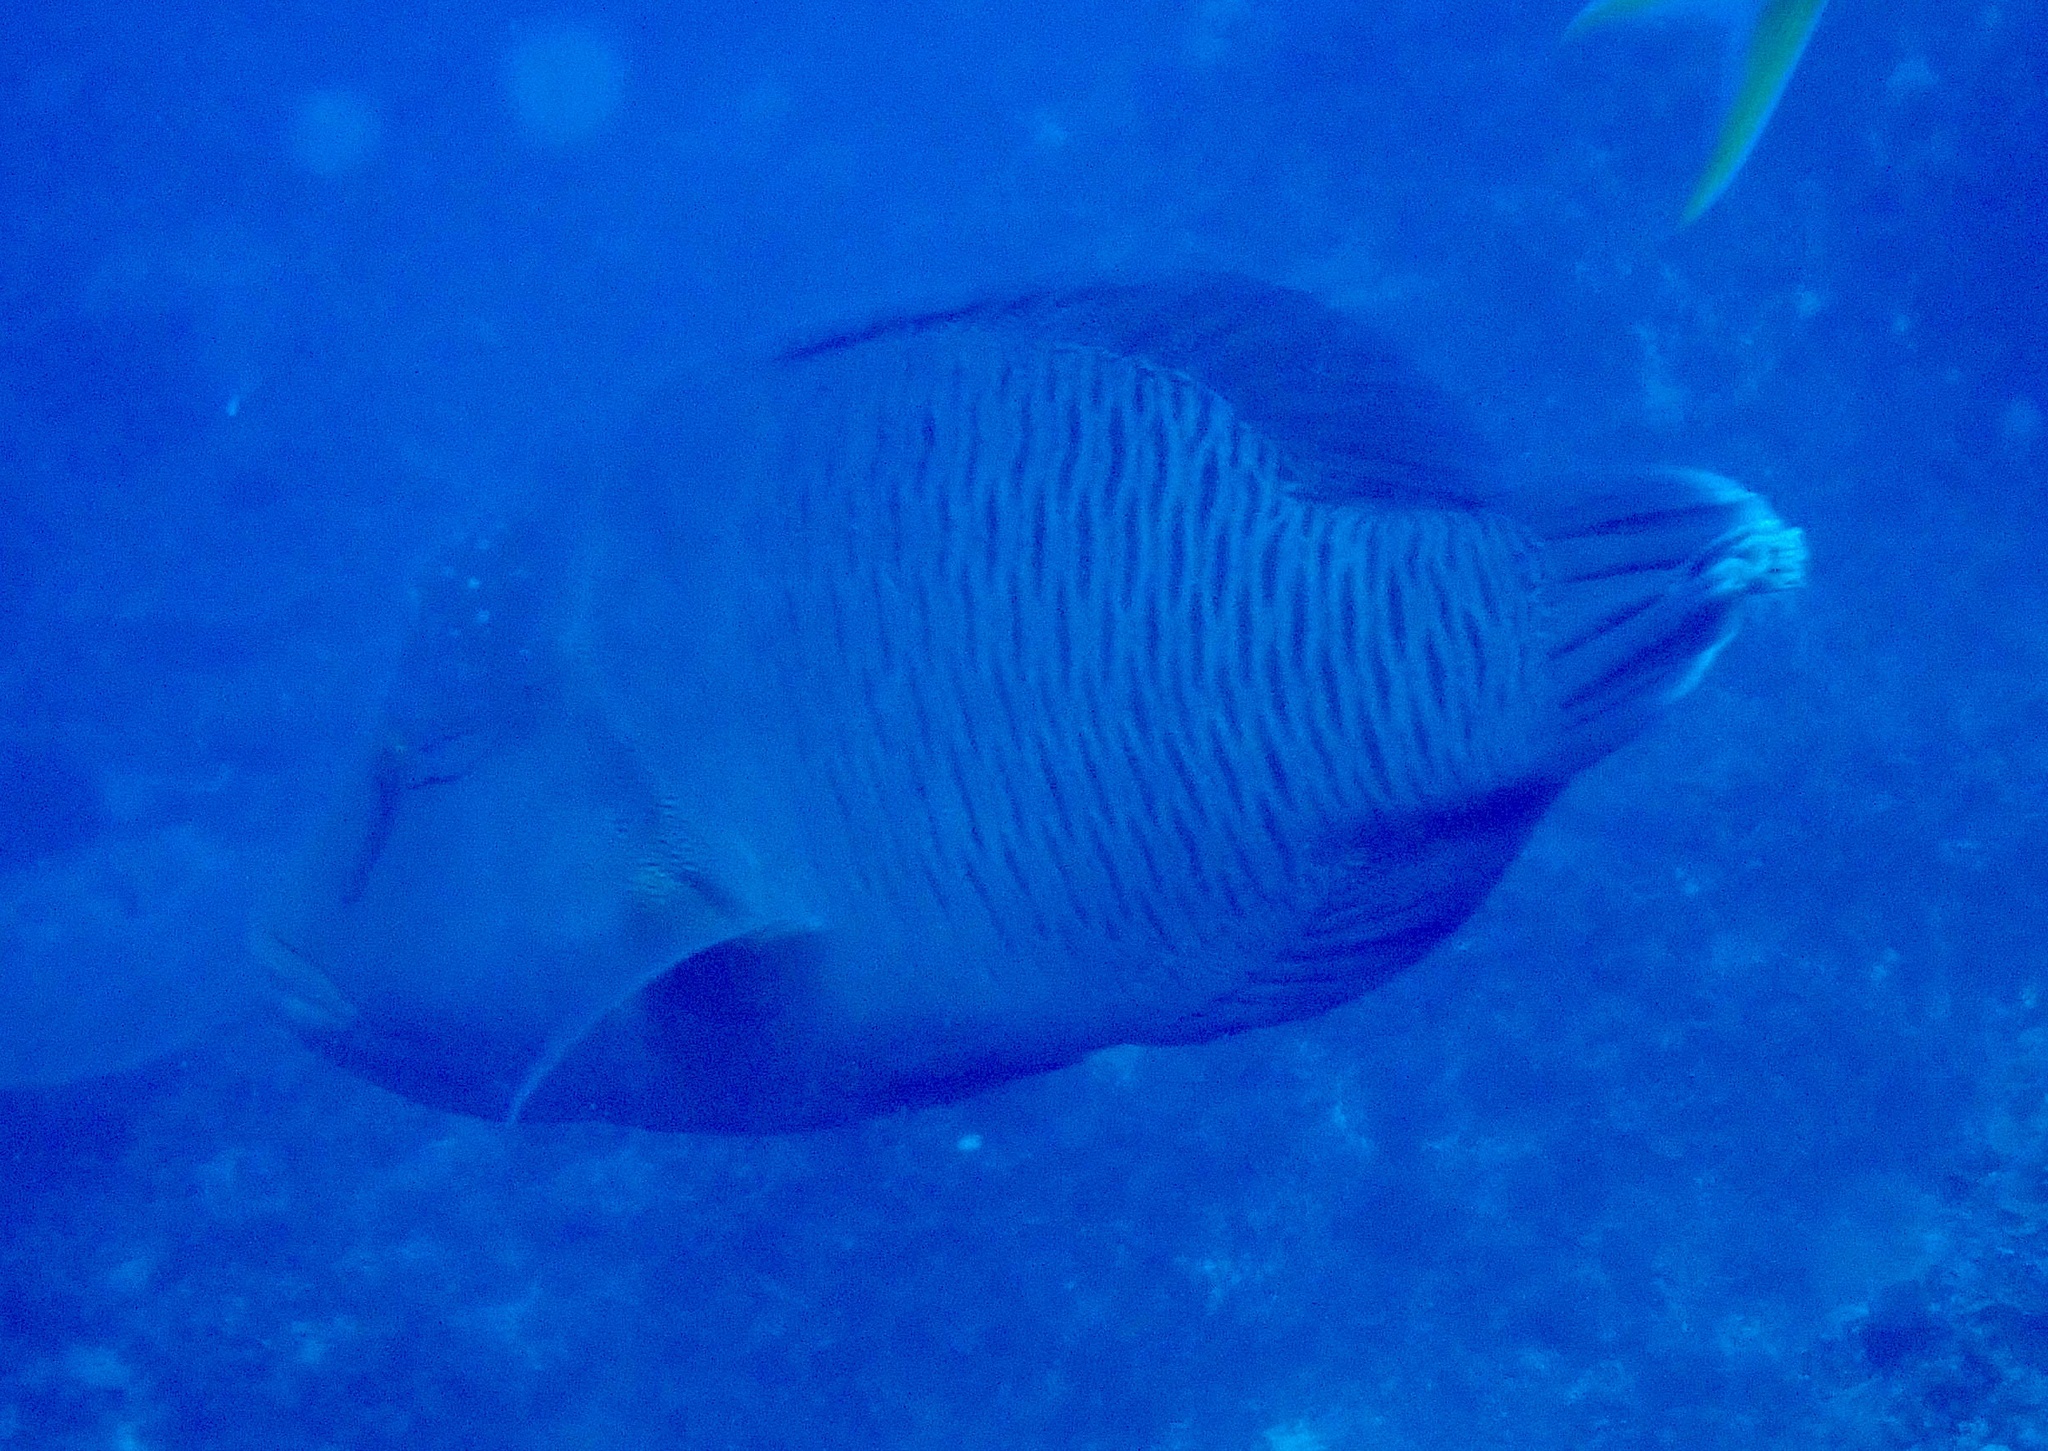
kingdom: Animalia
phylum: Chordata
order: Perciformes
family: Labridae
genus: Cheilinus
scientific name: Cheilinus undulatus
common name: Humphead wrasse
